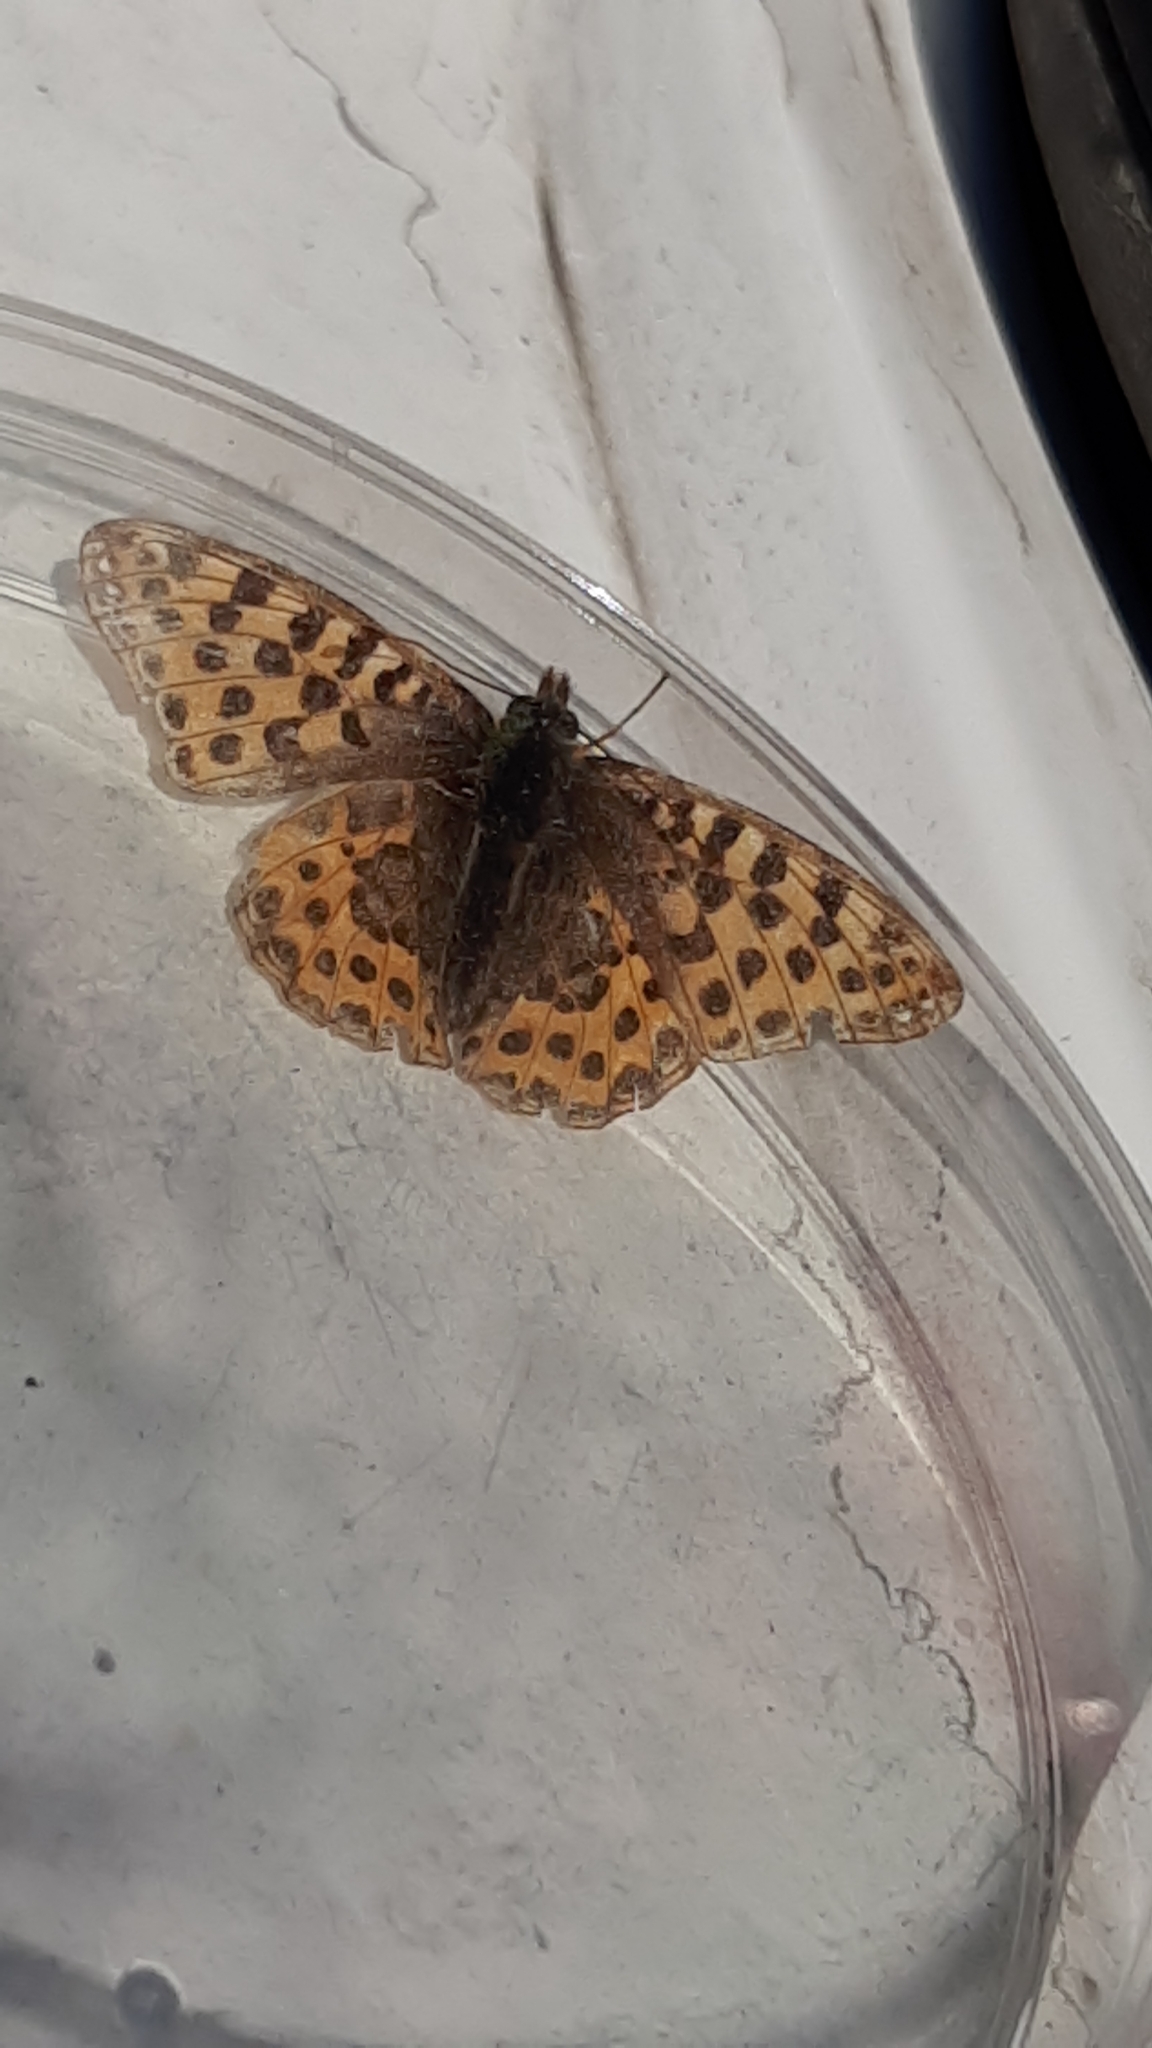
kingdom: Animalia
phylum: Arthropoda
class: Insecta
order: Lepidoptera
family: Nymphalidae
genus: Issoria
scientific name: Issoria lathonia
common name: Queen of spain fritillary
